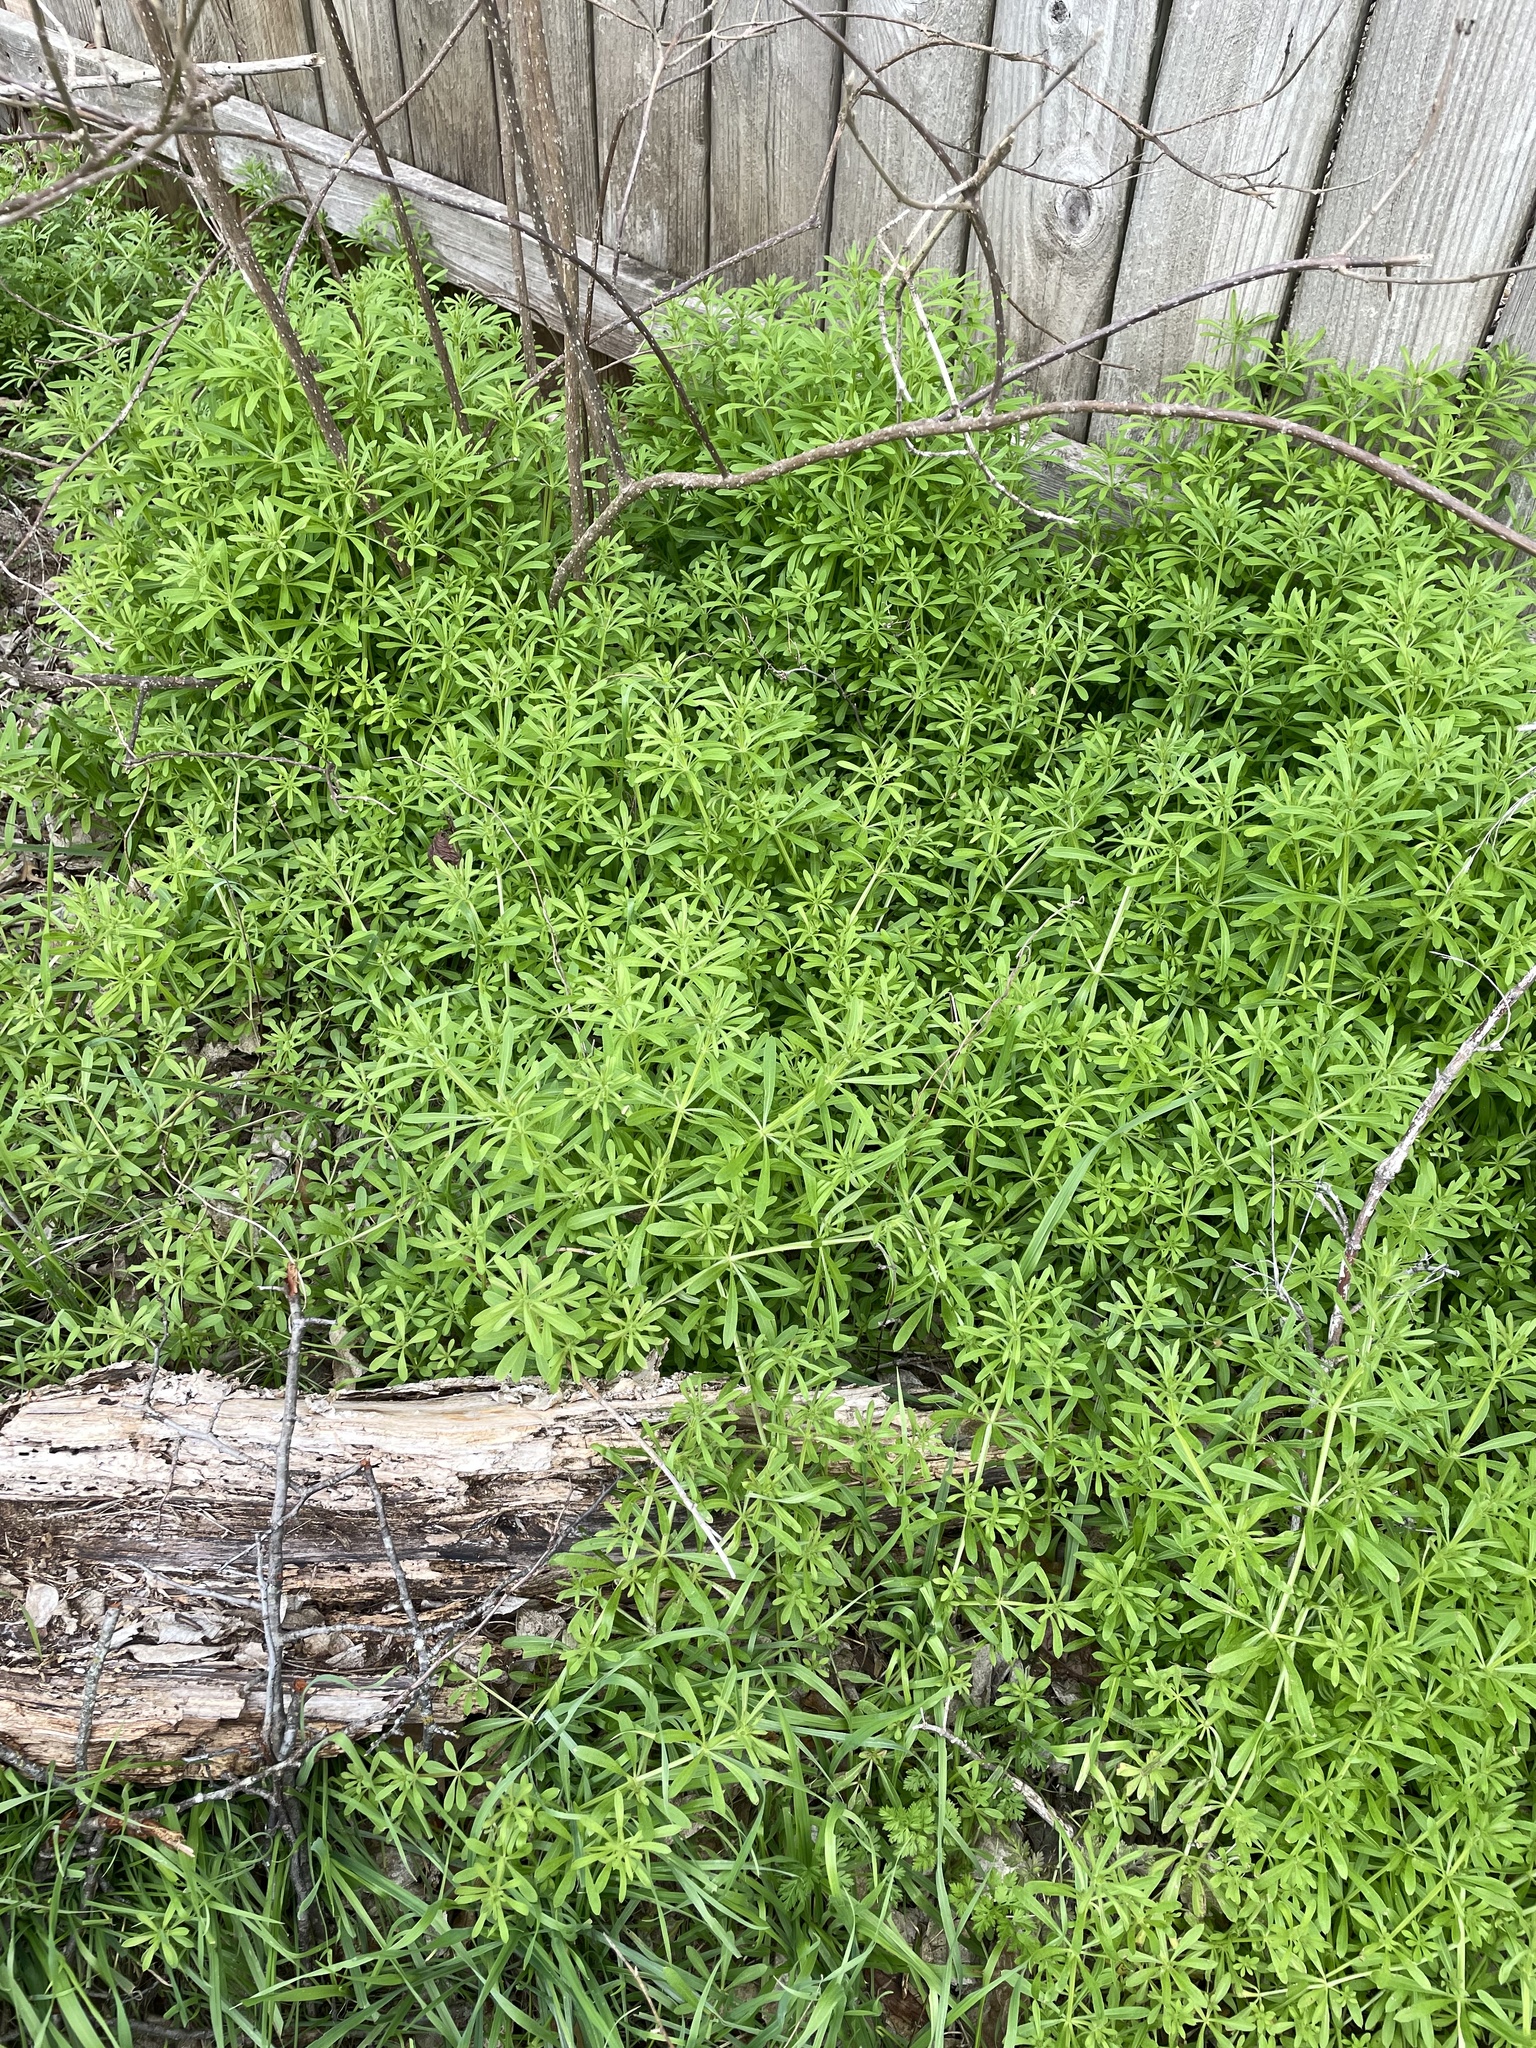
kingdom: Plantae
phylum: Tracheophyta
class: Magnoliopsida
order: Gentianales
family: Rubiaceae
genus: Galium
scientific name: Galium aparine
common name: Cleavers
